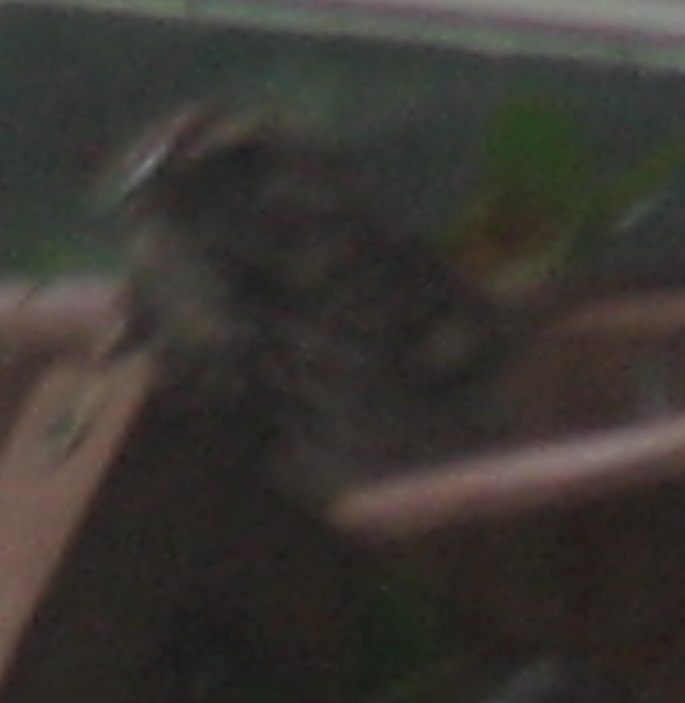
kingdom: Animalia
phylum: Chordata
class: Aves
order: Passeriformes
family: Passerellidae
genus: Melospiza
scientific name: Melospiza melodia
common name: Song sparrow
